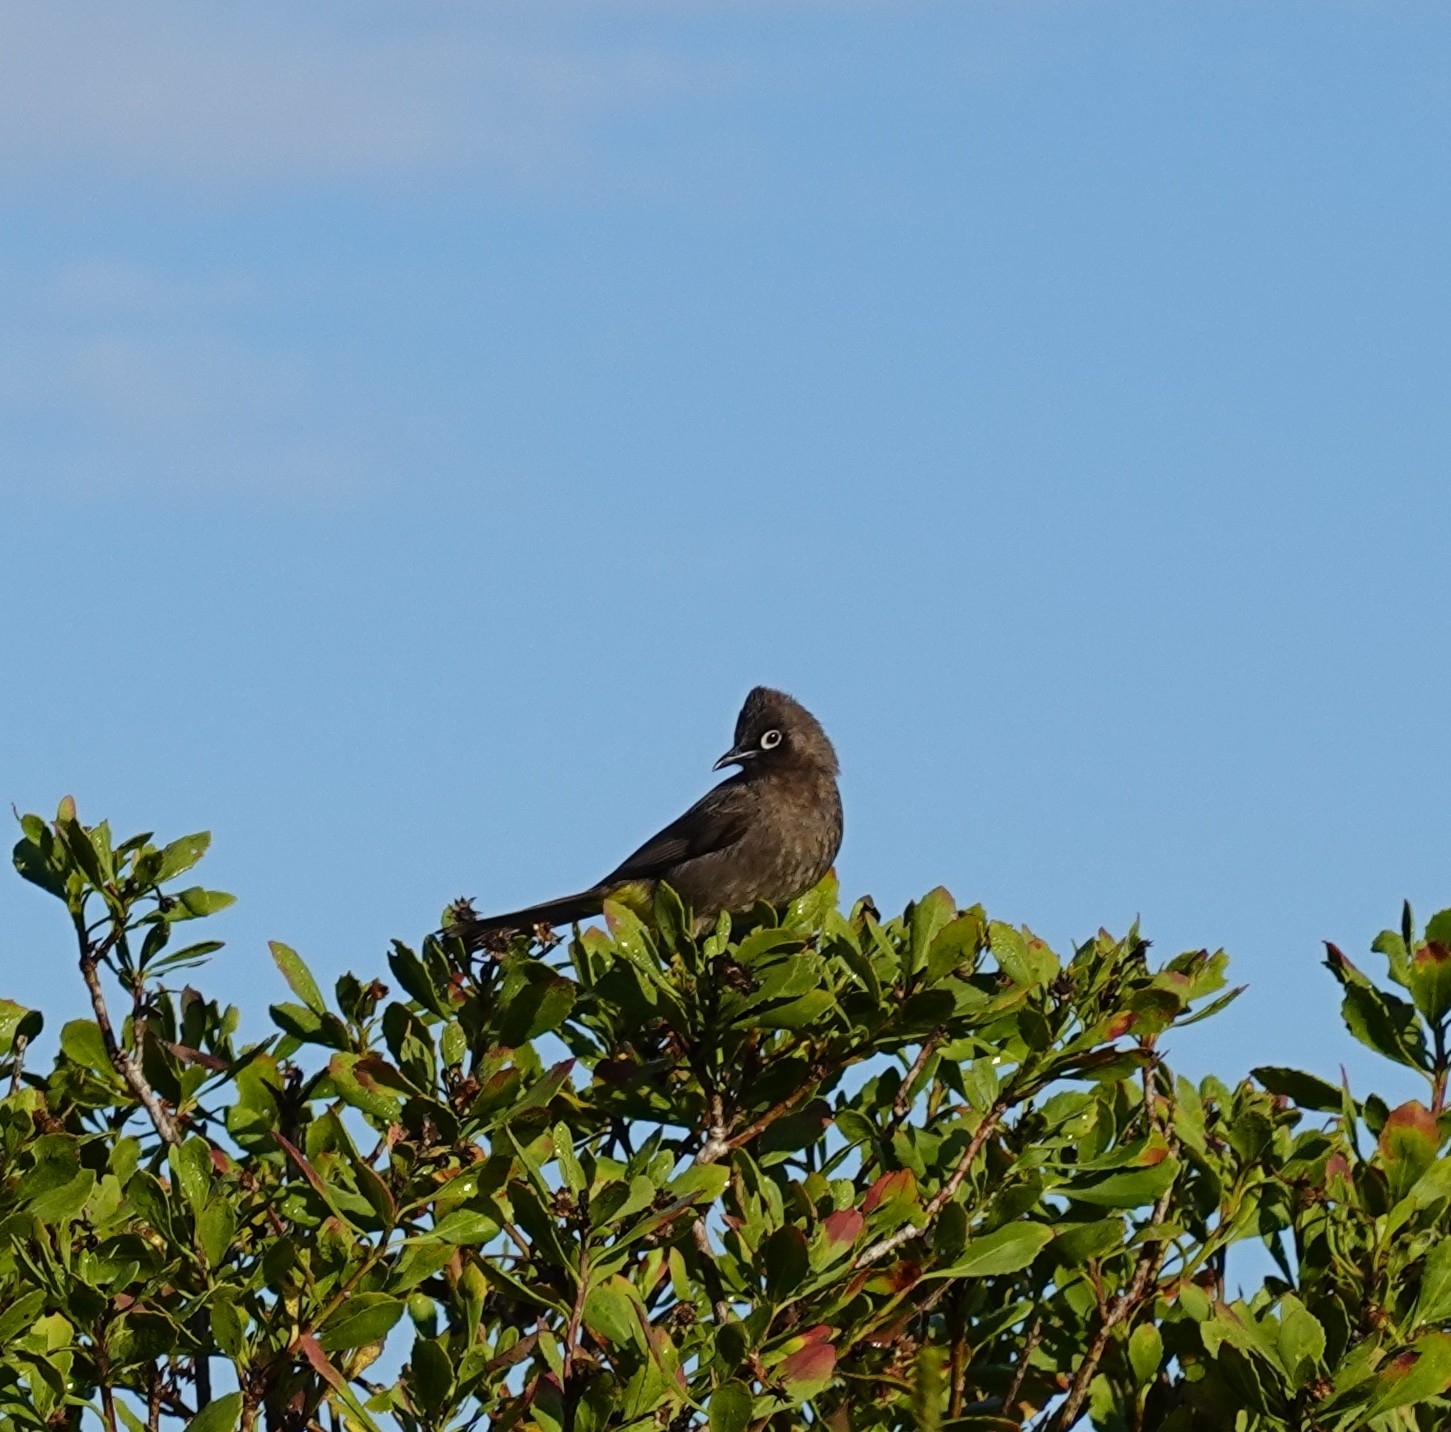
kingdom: Animalia
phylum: Chordata
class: Aves
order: Passeriformes
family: Pycnonotidae
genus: Pycnonotus
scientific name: Pycnonotus capensis
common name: Cape bulbul
